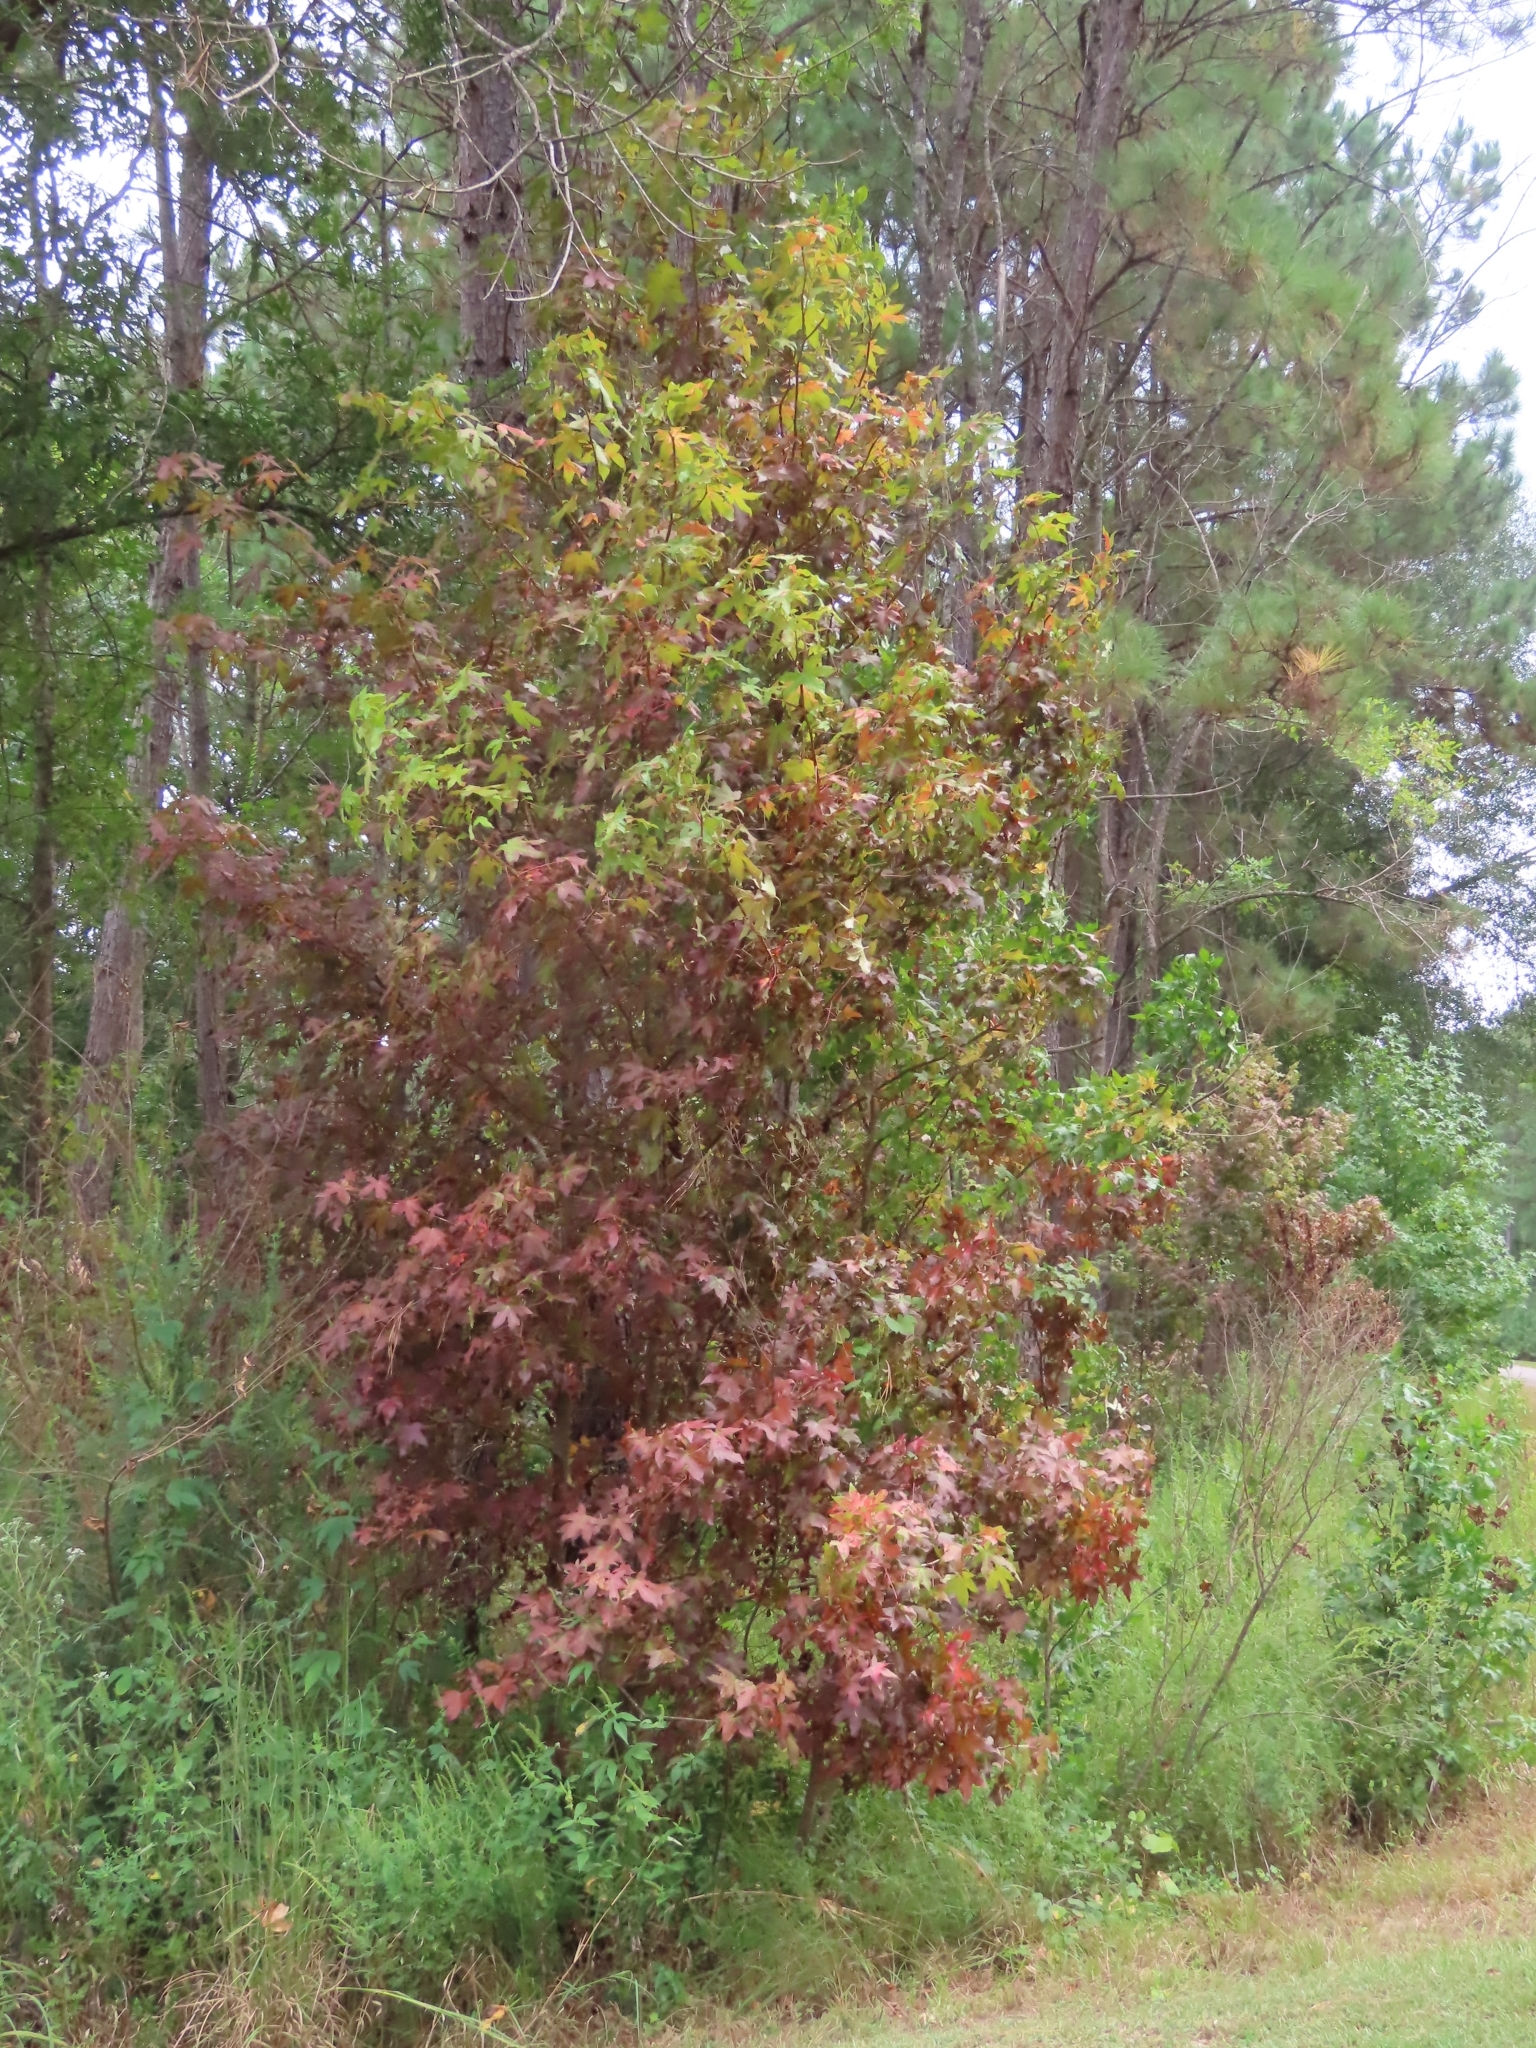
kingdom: Plantae
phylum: Tracheophyta
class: Magnoliopsida
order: Saxifragales
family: Altingiaceae
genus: Liquidambar
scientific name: Liquidambar styraciflua
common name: Sweet gum
